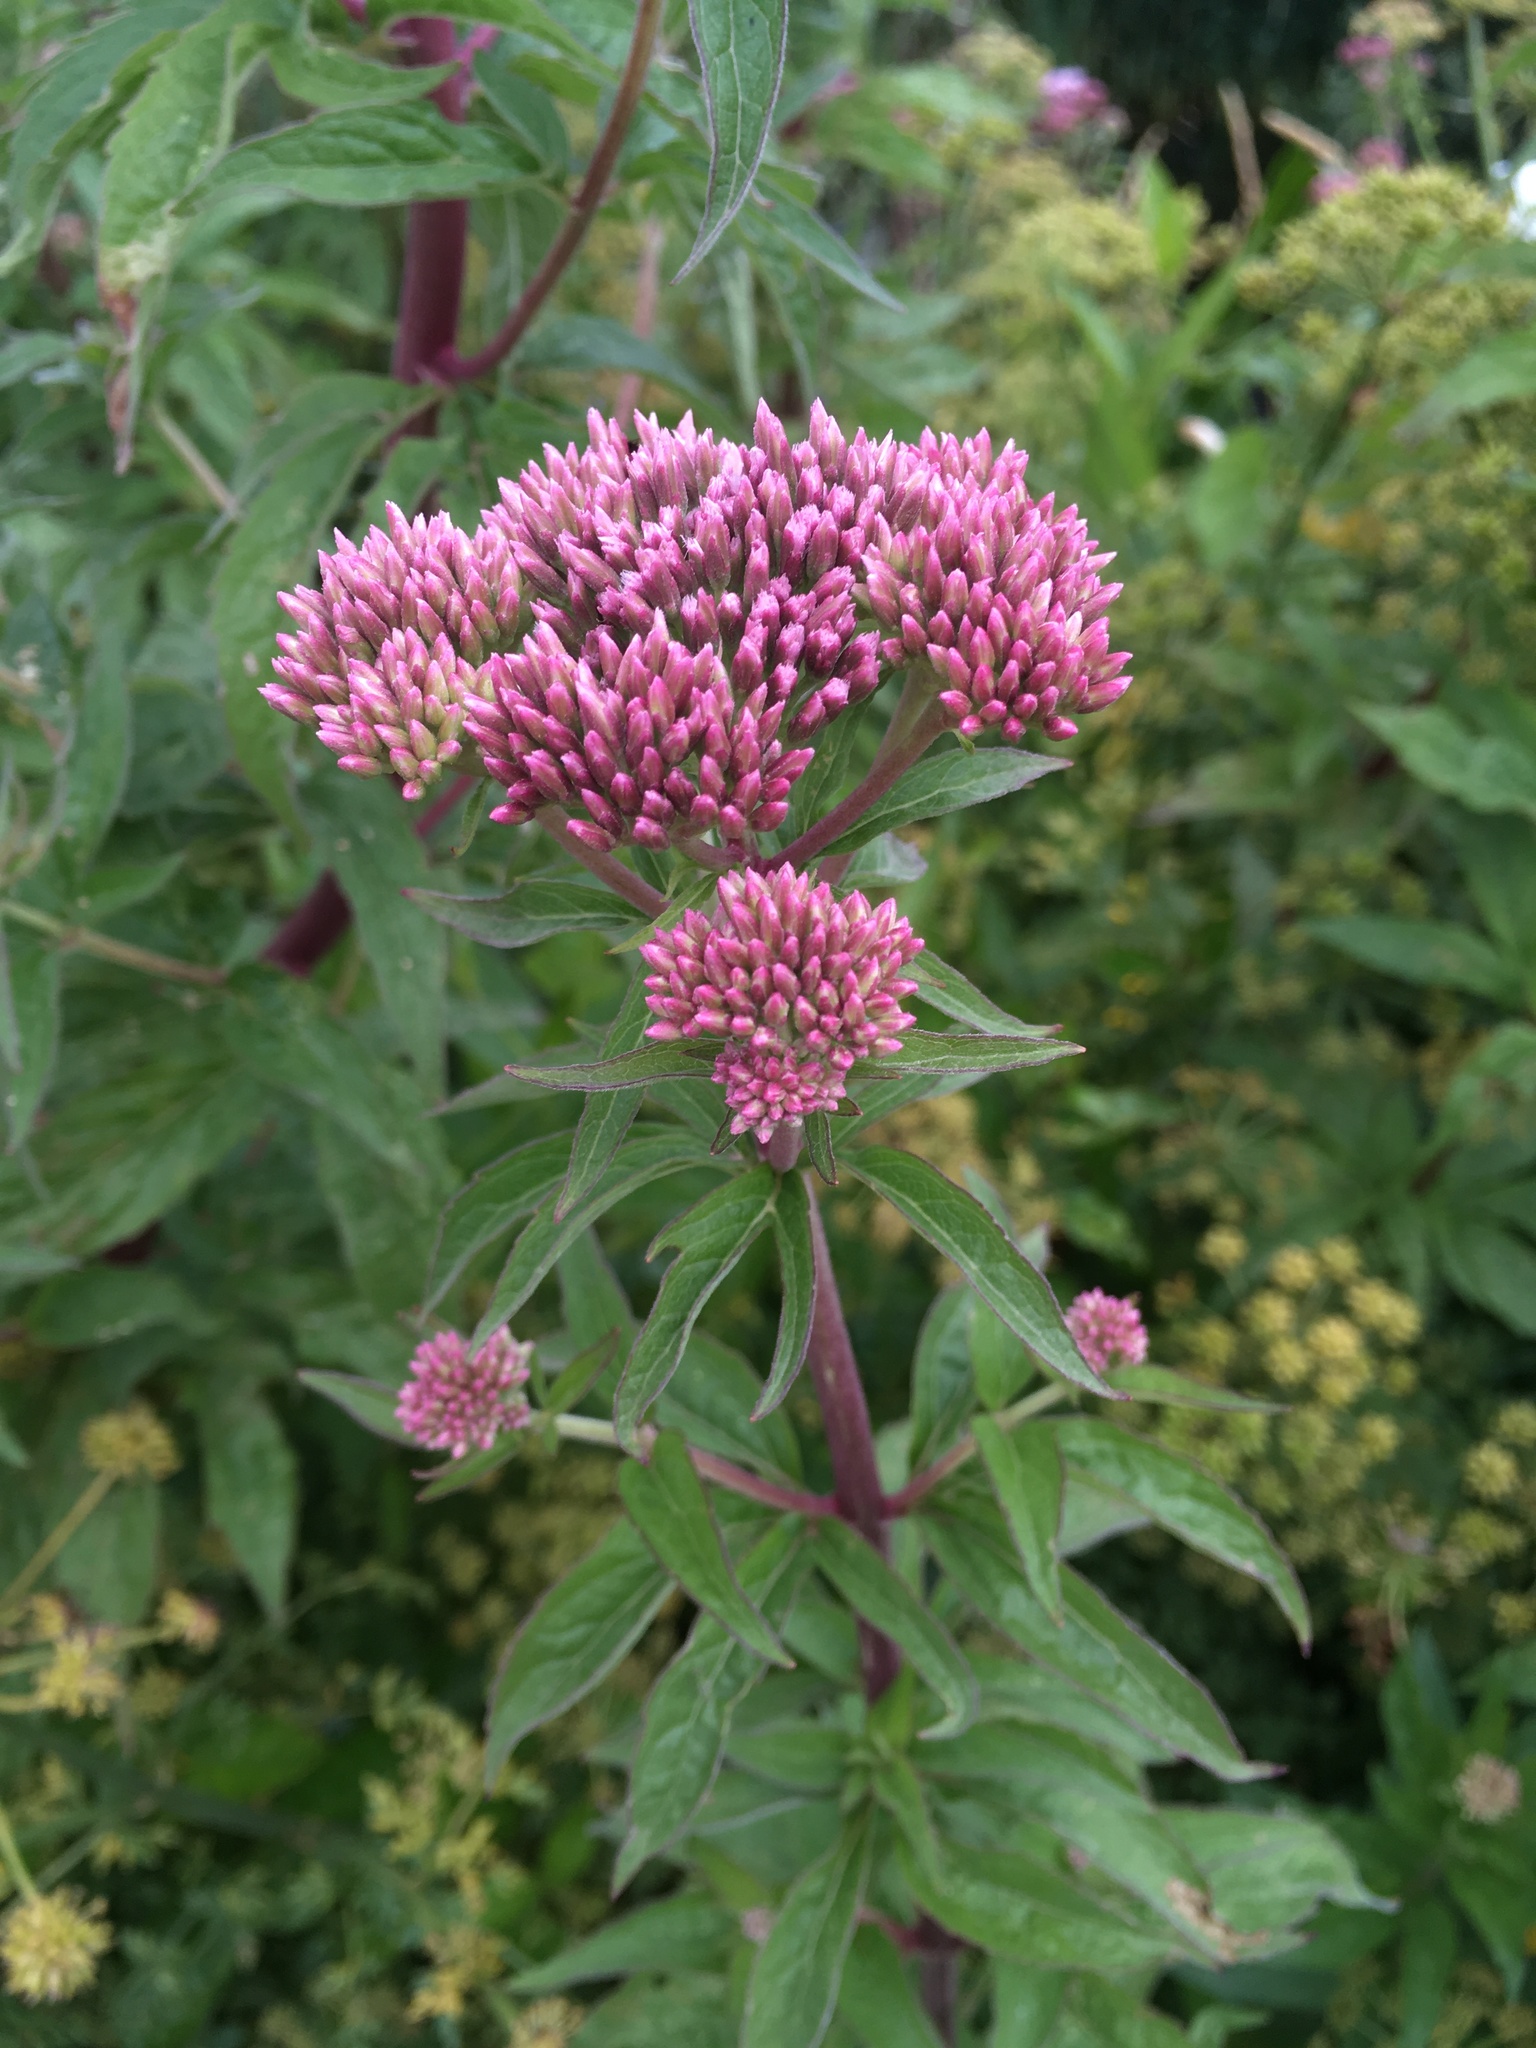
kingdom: Plantae
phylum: Tracheophyta
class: Magnoliopsida
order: Asterales
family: Asteraceae
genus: Eupatorium
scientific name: Eupatorium cannabinum
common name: Hemp-agrimony
